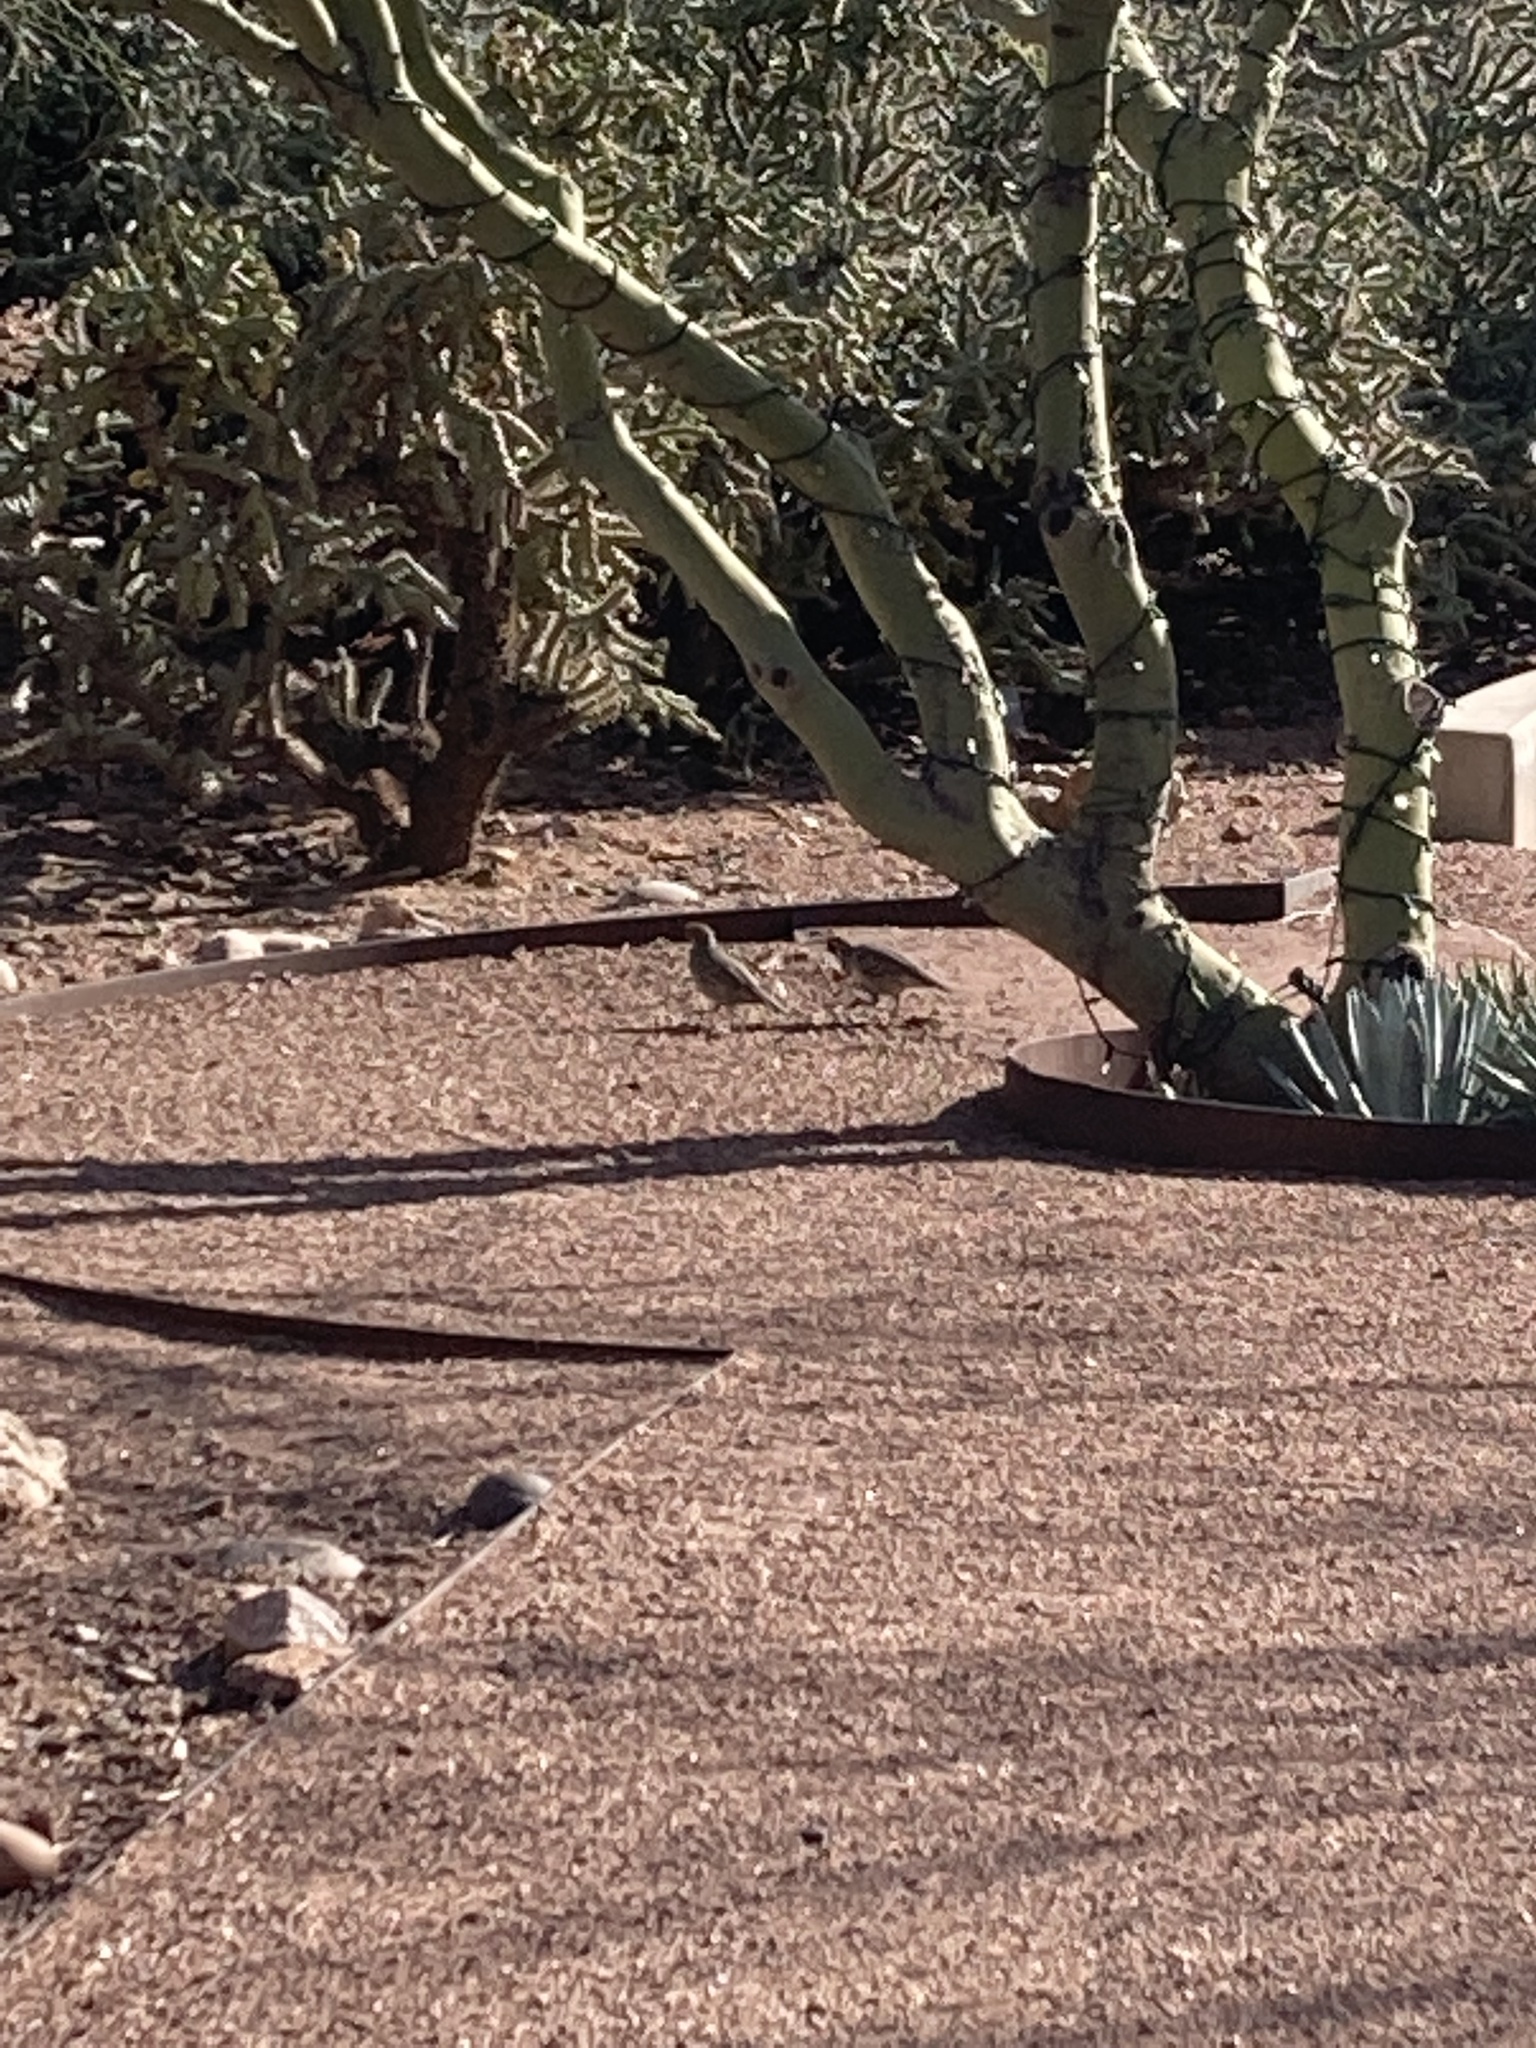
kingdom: Animalia
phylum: Chordata
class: Aves
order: Galliformes
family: Odontophoridae
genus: Callipepla
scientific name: Callipepla gambelii
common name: Gambel's quail
